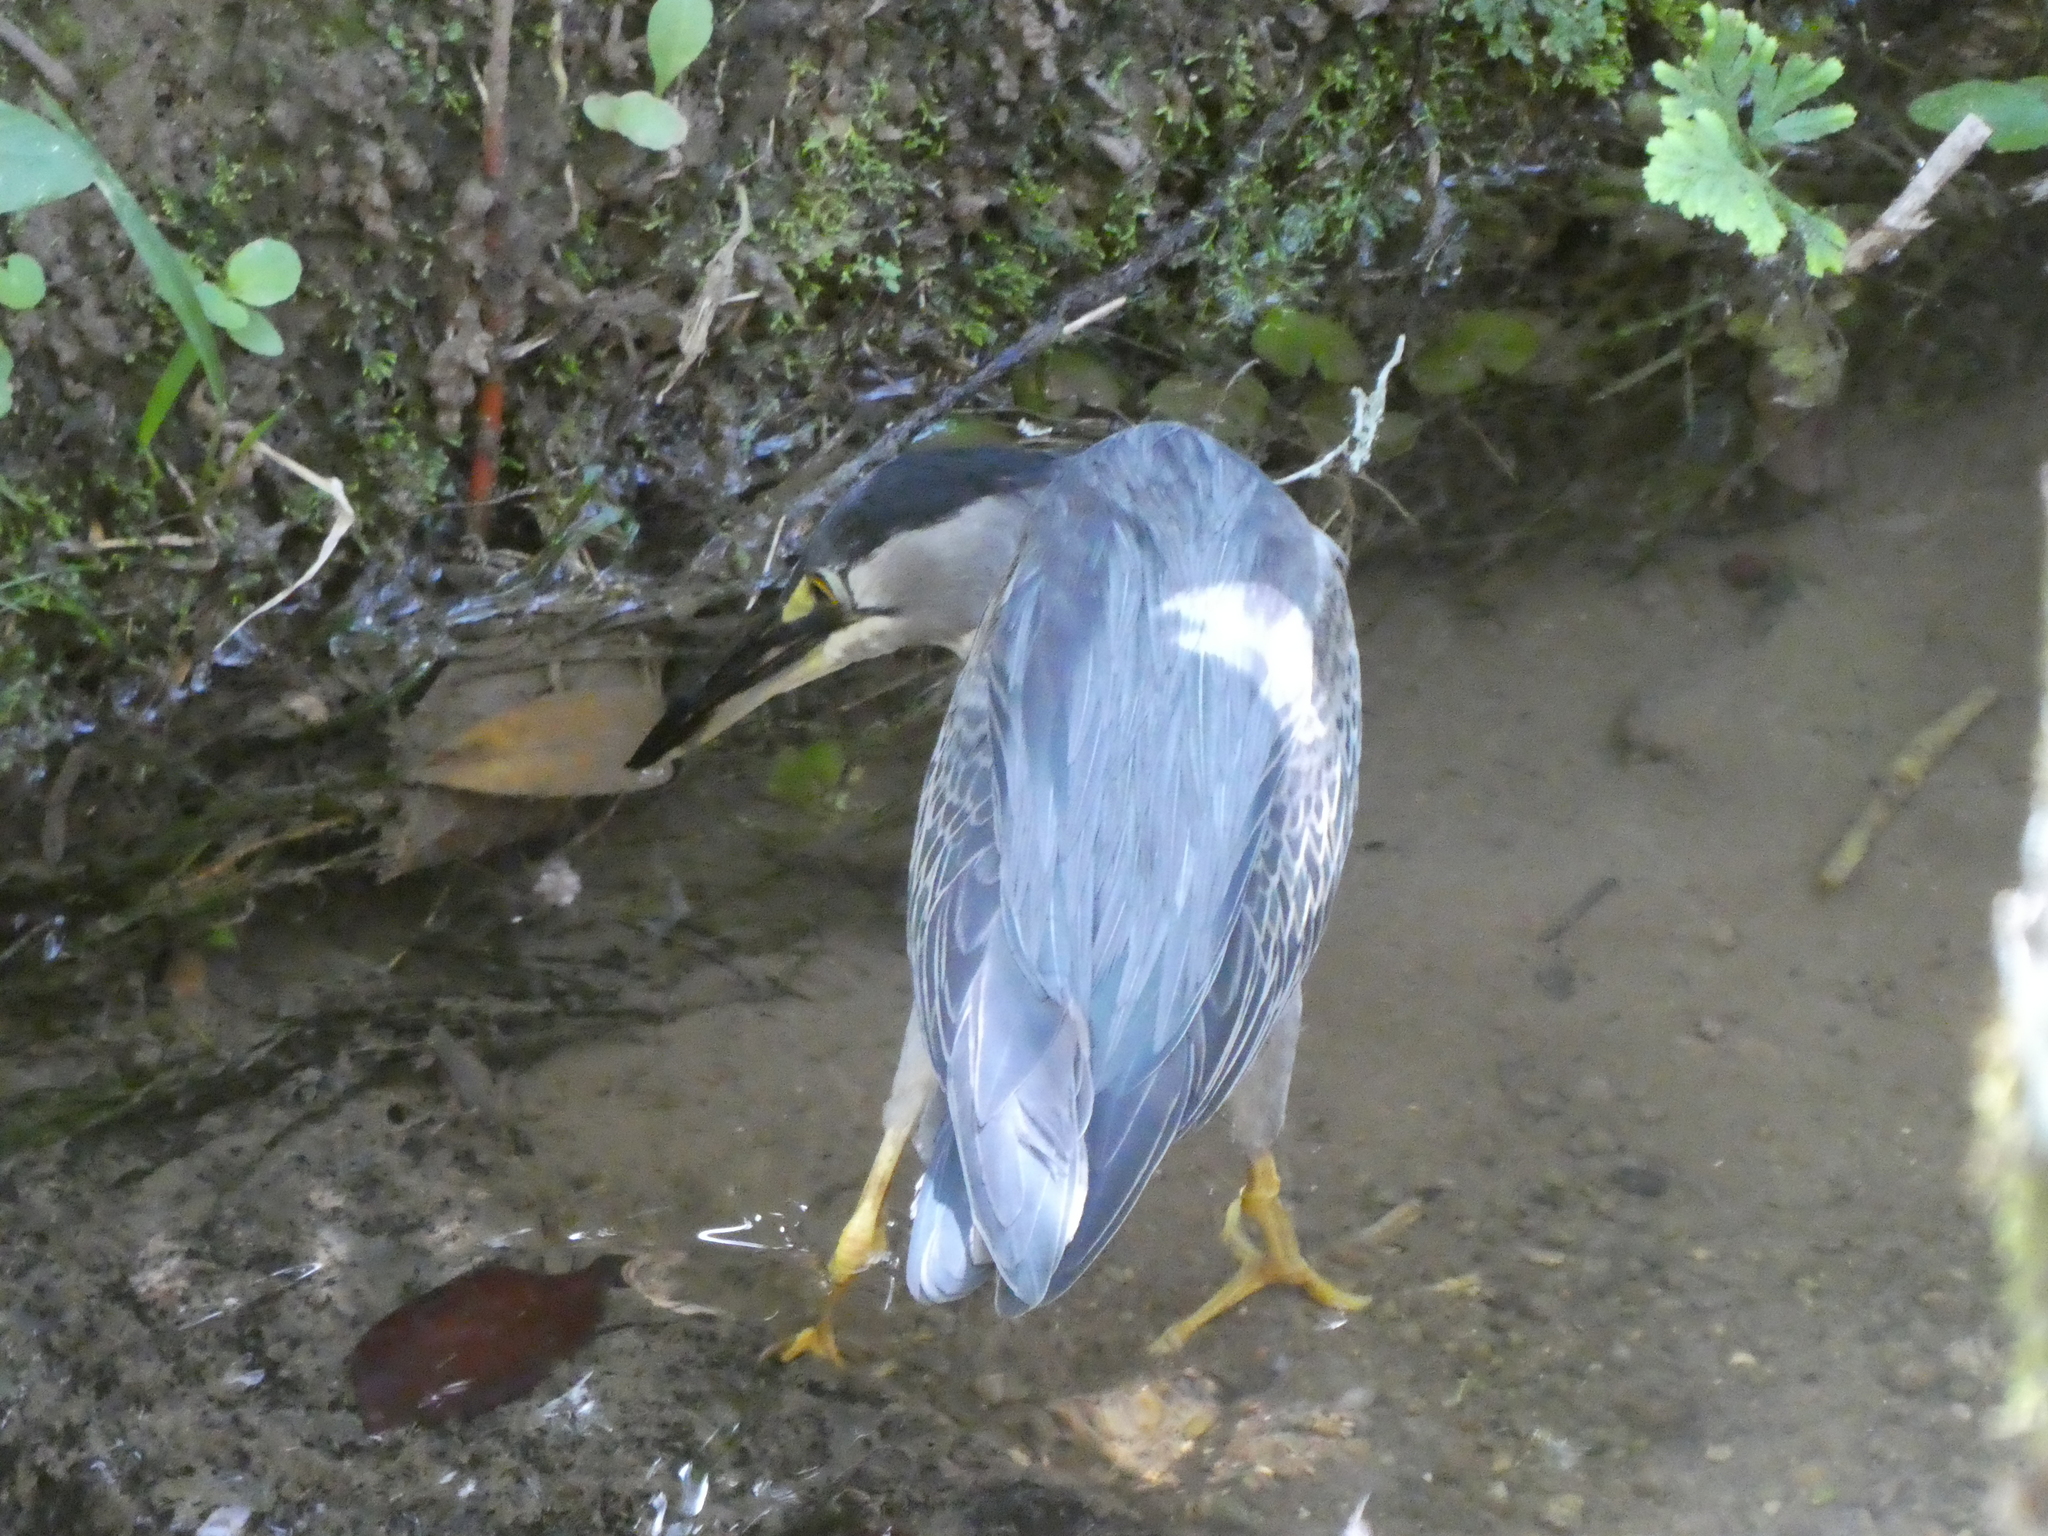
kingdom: Animalia
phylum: Chordata
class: Aves
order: Pelecaniformes
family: Ardeidae
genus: Butorides
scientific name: Butorides striata
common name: Striated heron
